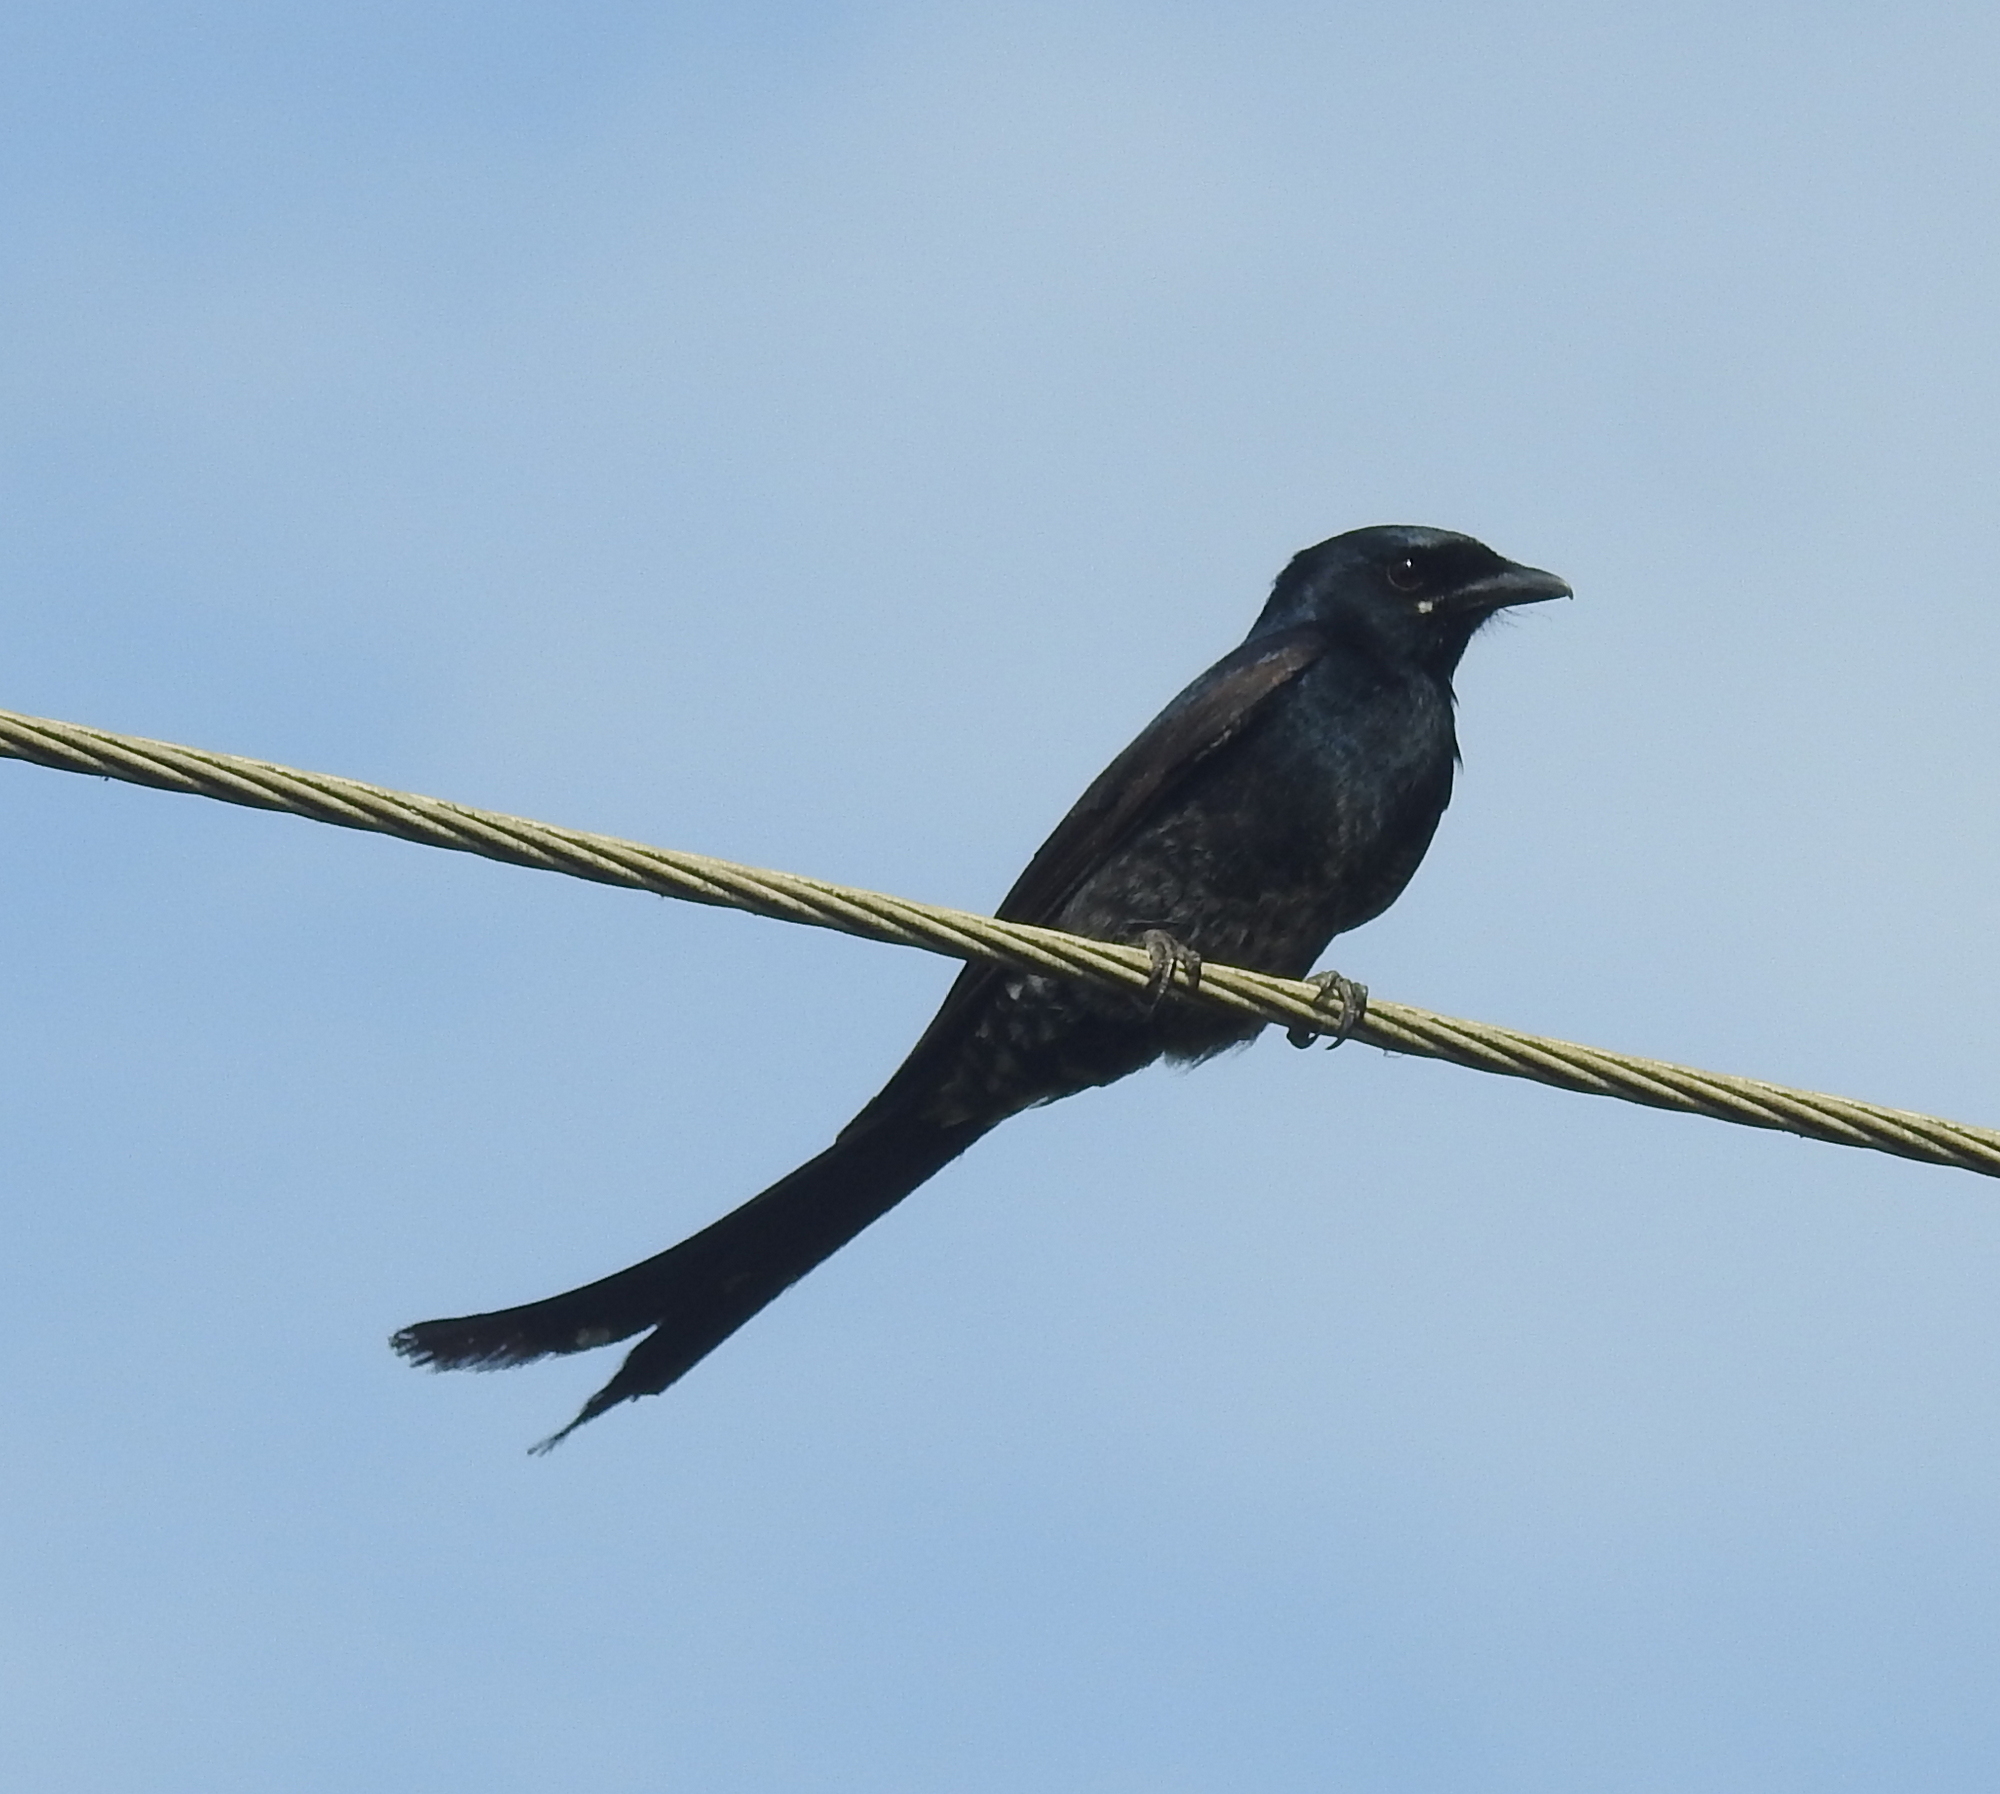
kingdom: Animalia
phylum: Chordata
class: Aves
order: Passeriformes
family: Dicruridae
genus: Dicrurus
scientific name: Dicrurus macrocercus
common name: Black drongo
